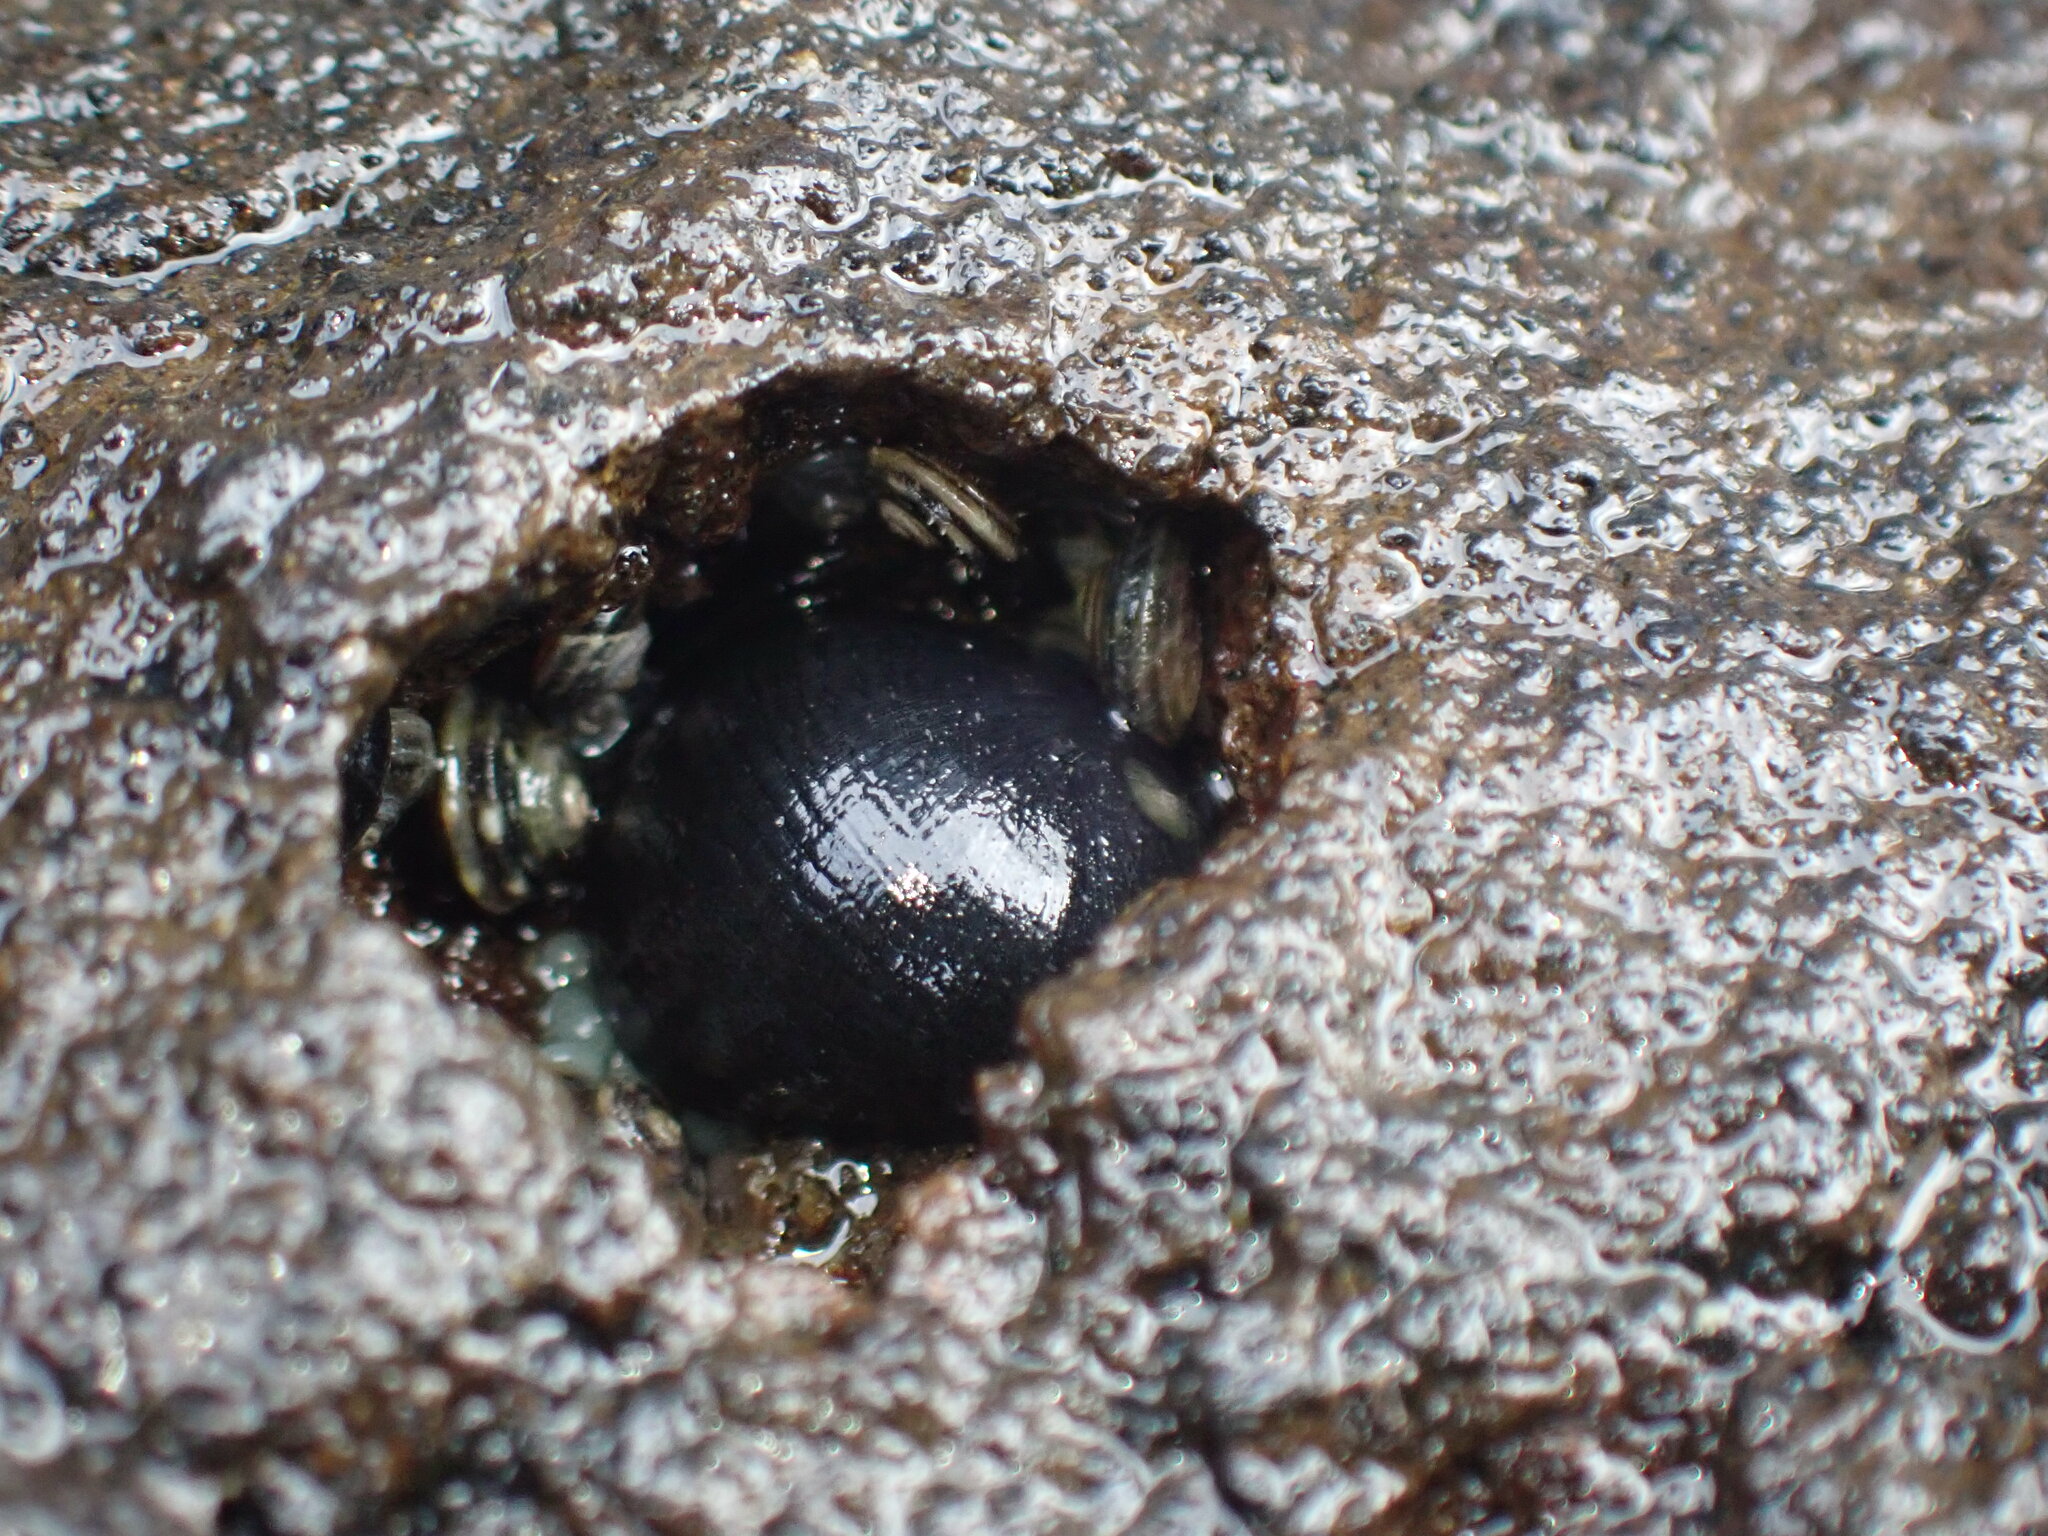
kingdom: Animalia
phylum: Mollusca
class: Gastropoda
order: Littorinimorpha
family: Littorinidae
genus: Risellopsis
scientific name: Risellopsis varia
